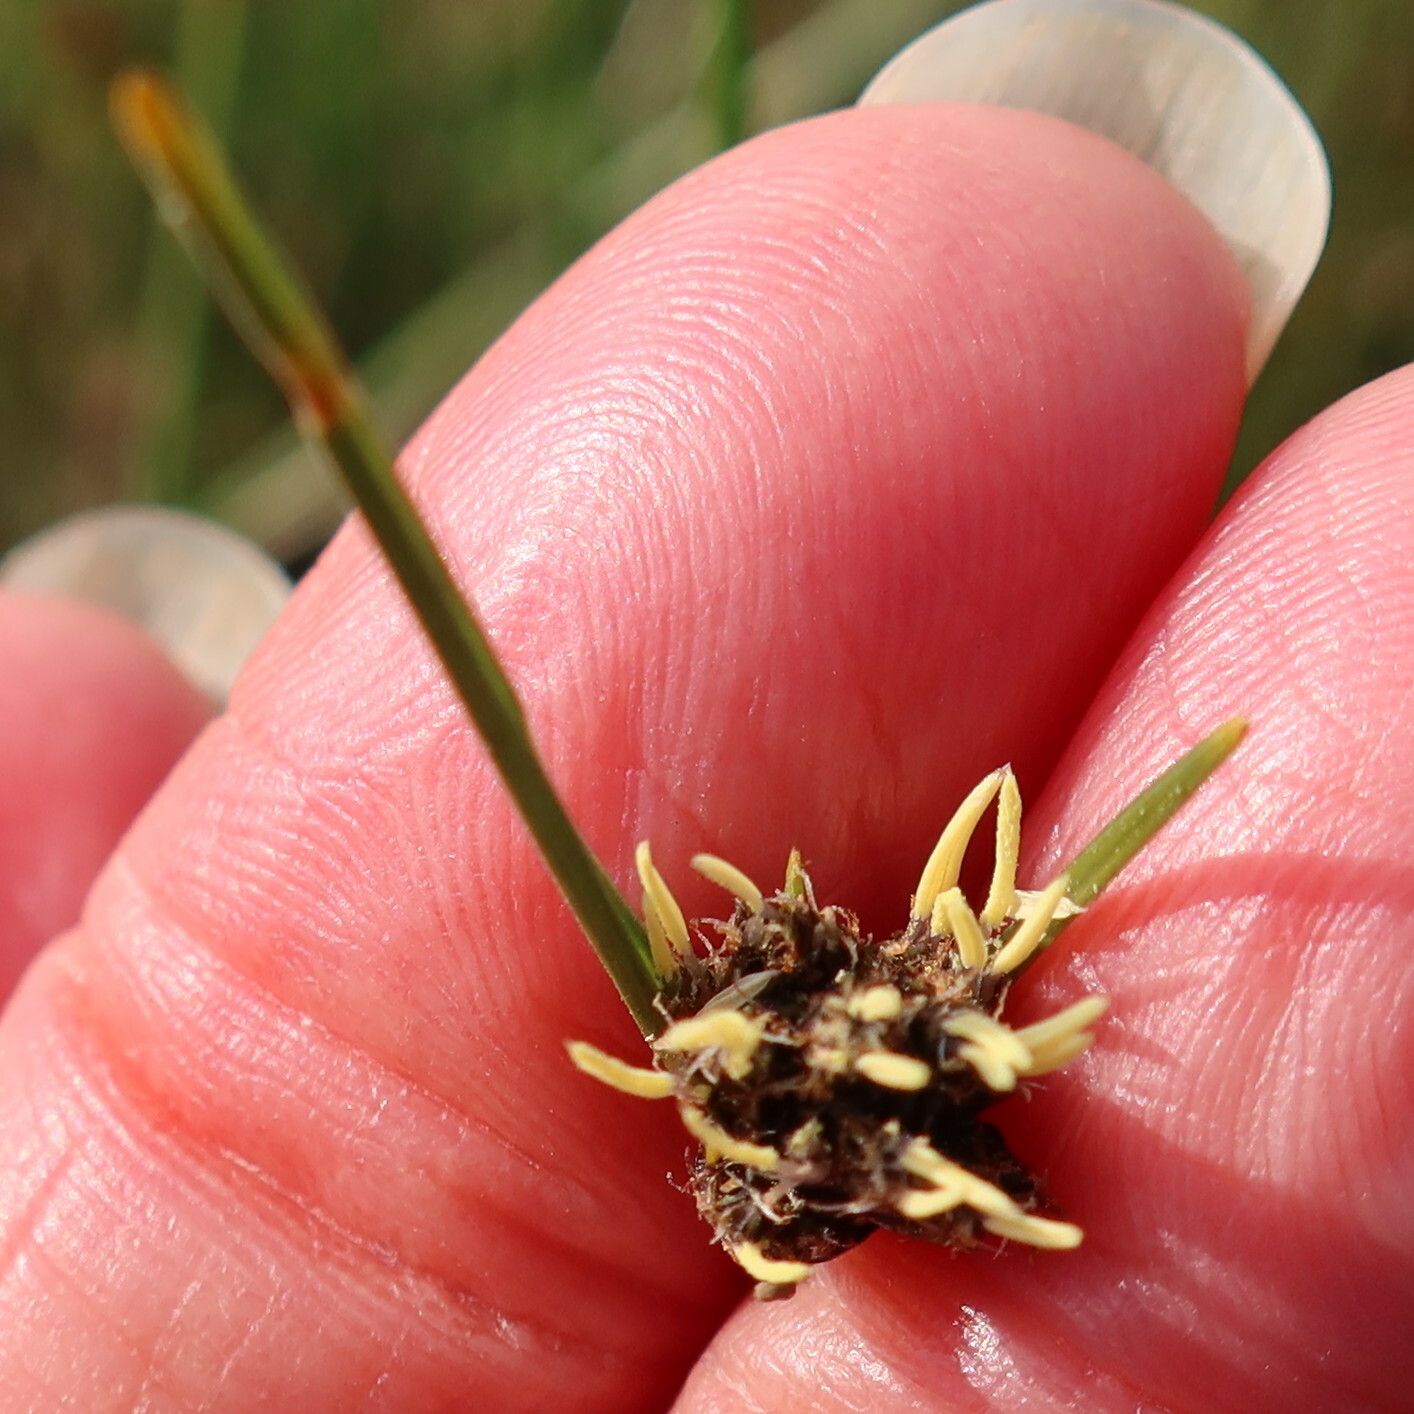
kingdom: Plantae
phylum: Tracheophyta
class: Liliopsida
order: Poales
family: Cyperaceae
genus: Ficinia
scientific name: Ficinia indica
